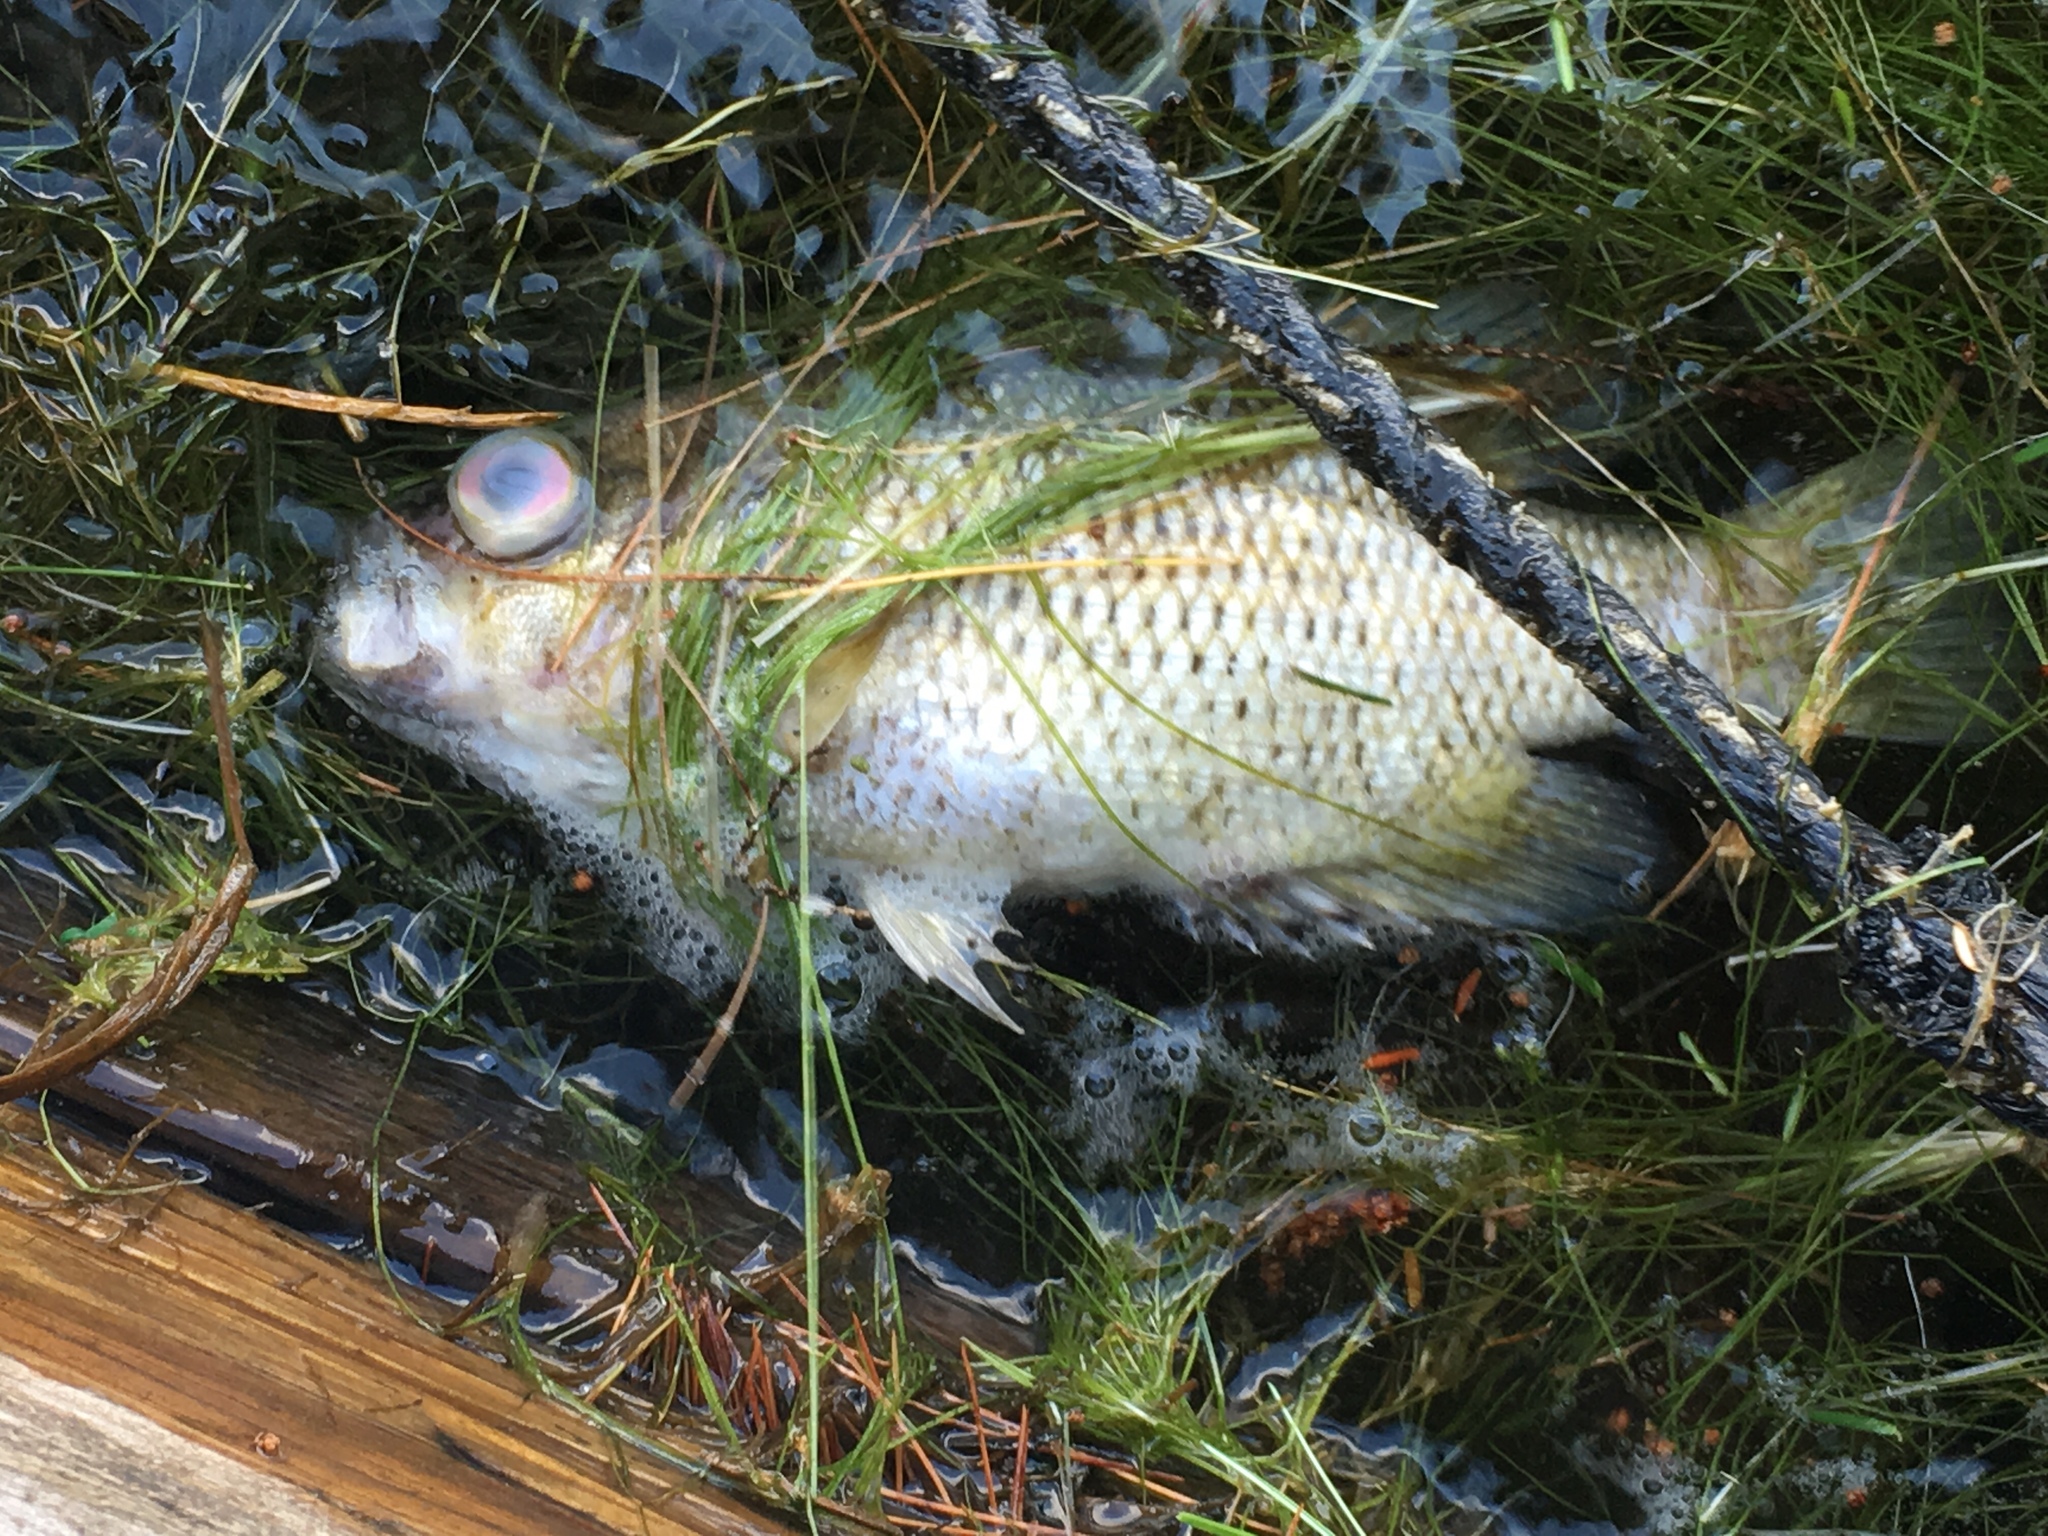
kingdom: Animalia
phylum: Chordata
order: Perciformes
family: Centrarchidae
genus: Ambloplites
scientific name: Ambloplites rupestris
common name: Rock bass
